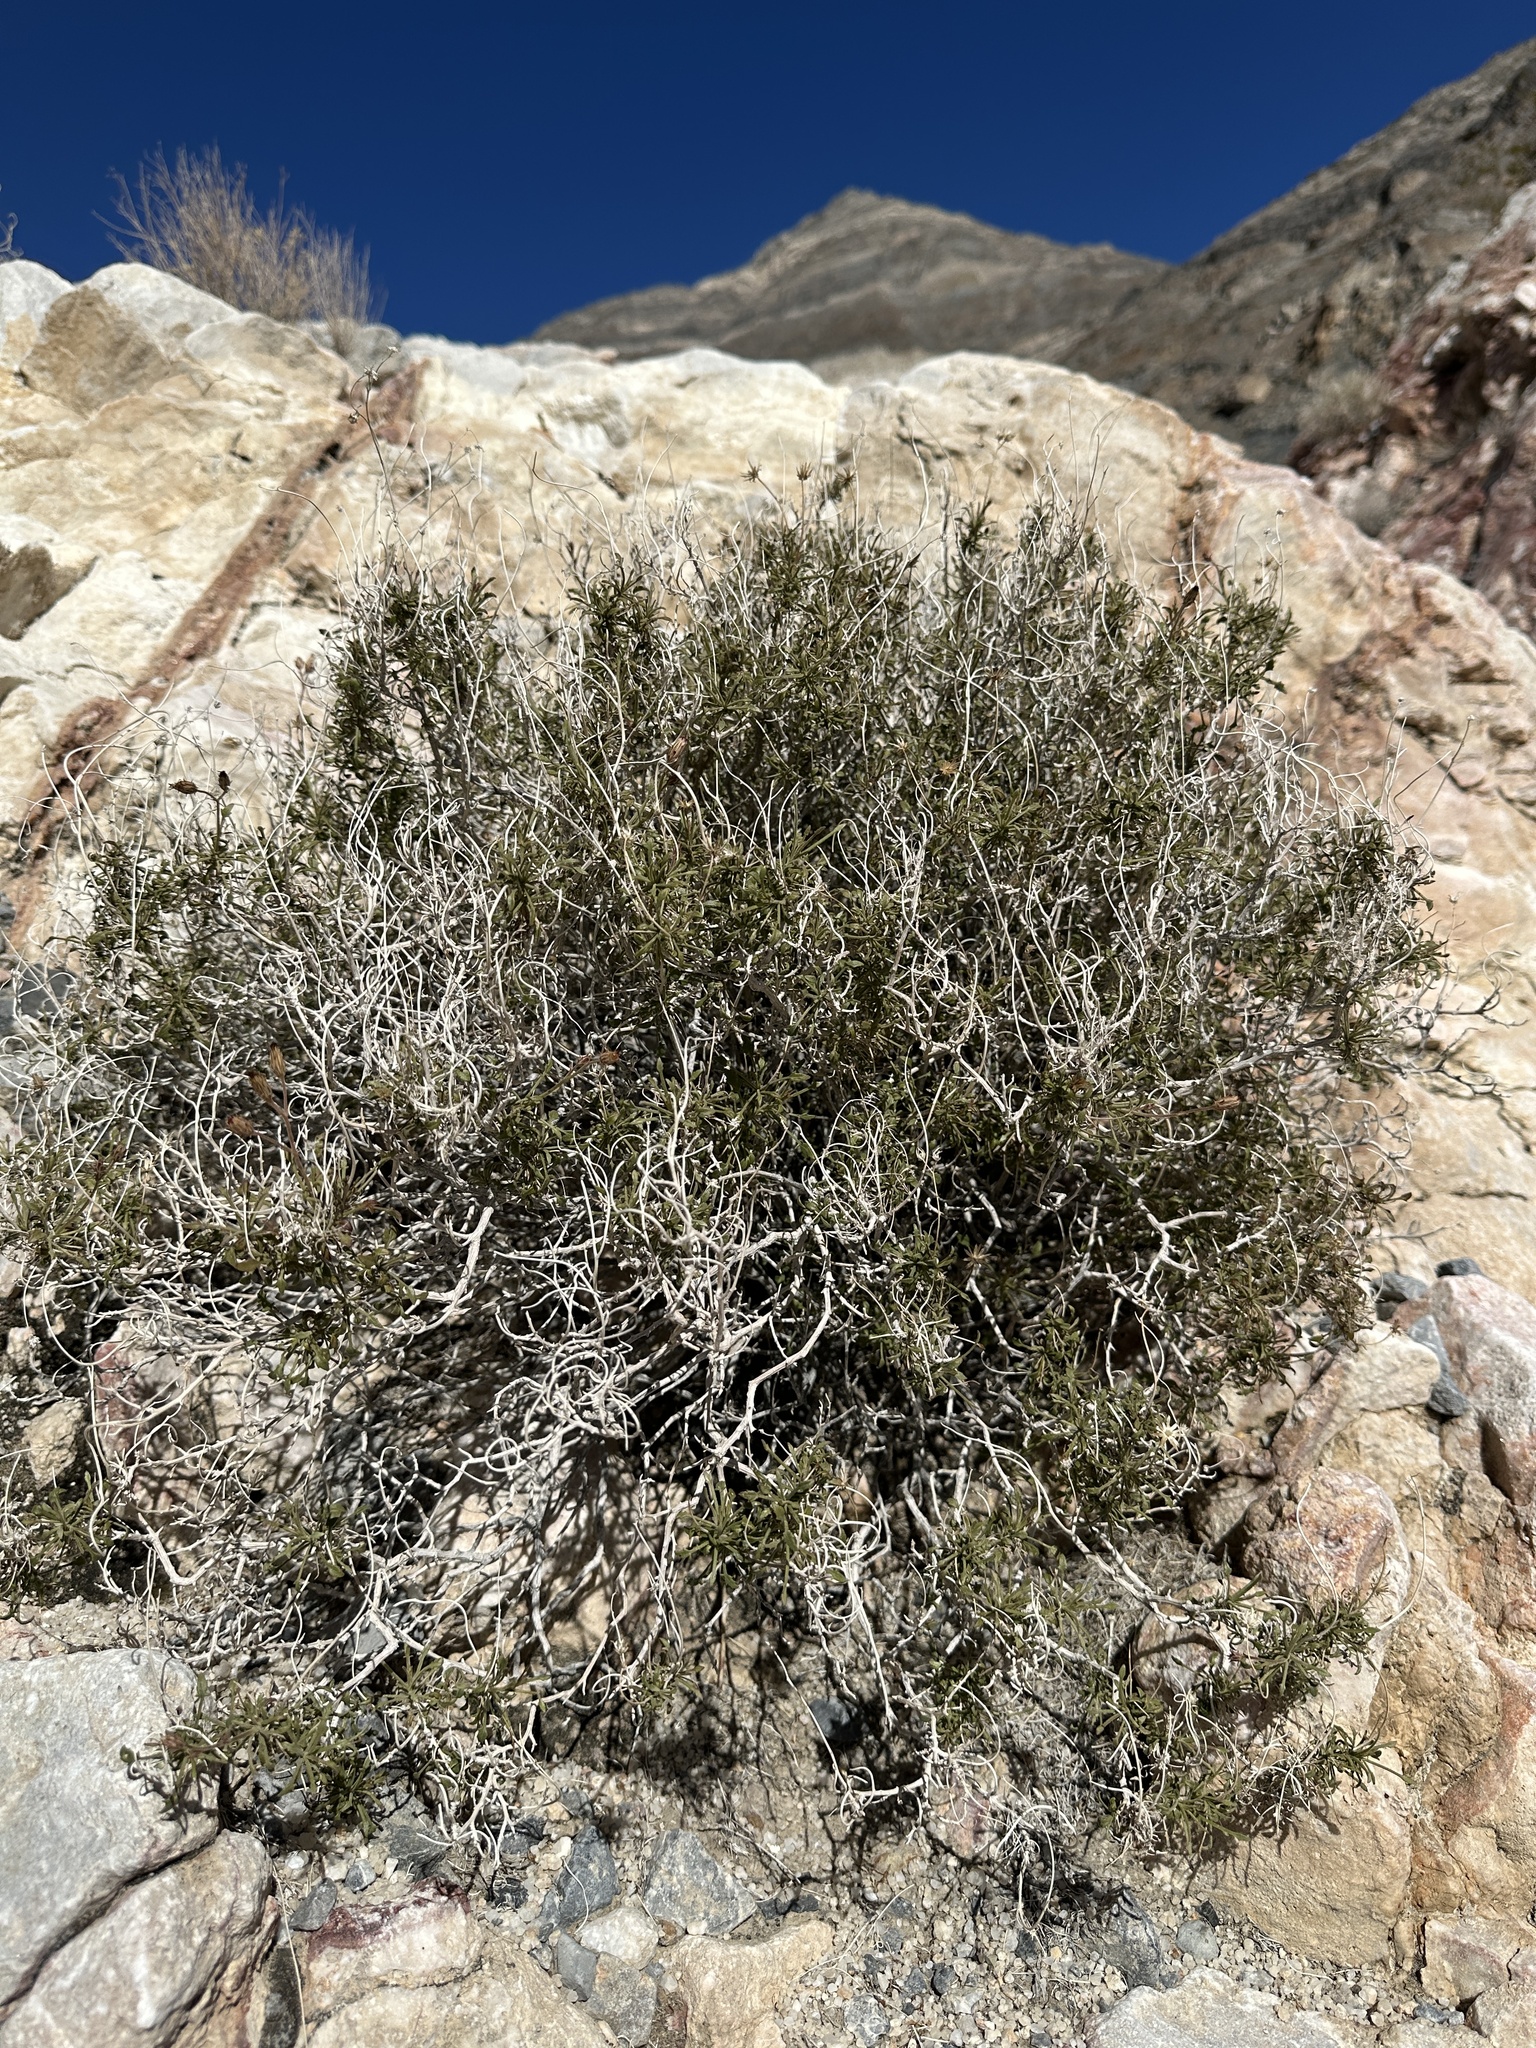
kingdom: Plantae
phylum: Tracheophyta
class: Magnoliopsida
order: Asterales
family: Asteraceae
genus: Pleurocoronis
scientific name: Pleurocoronis pluriseta
